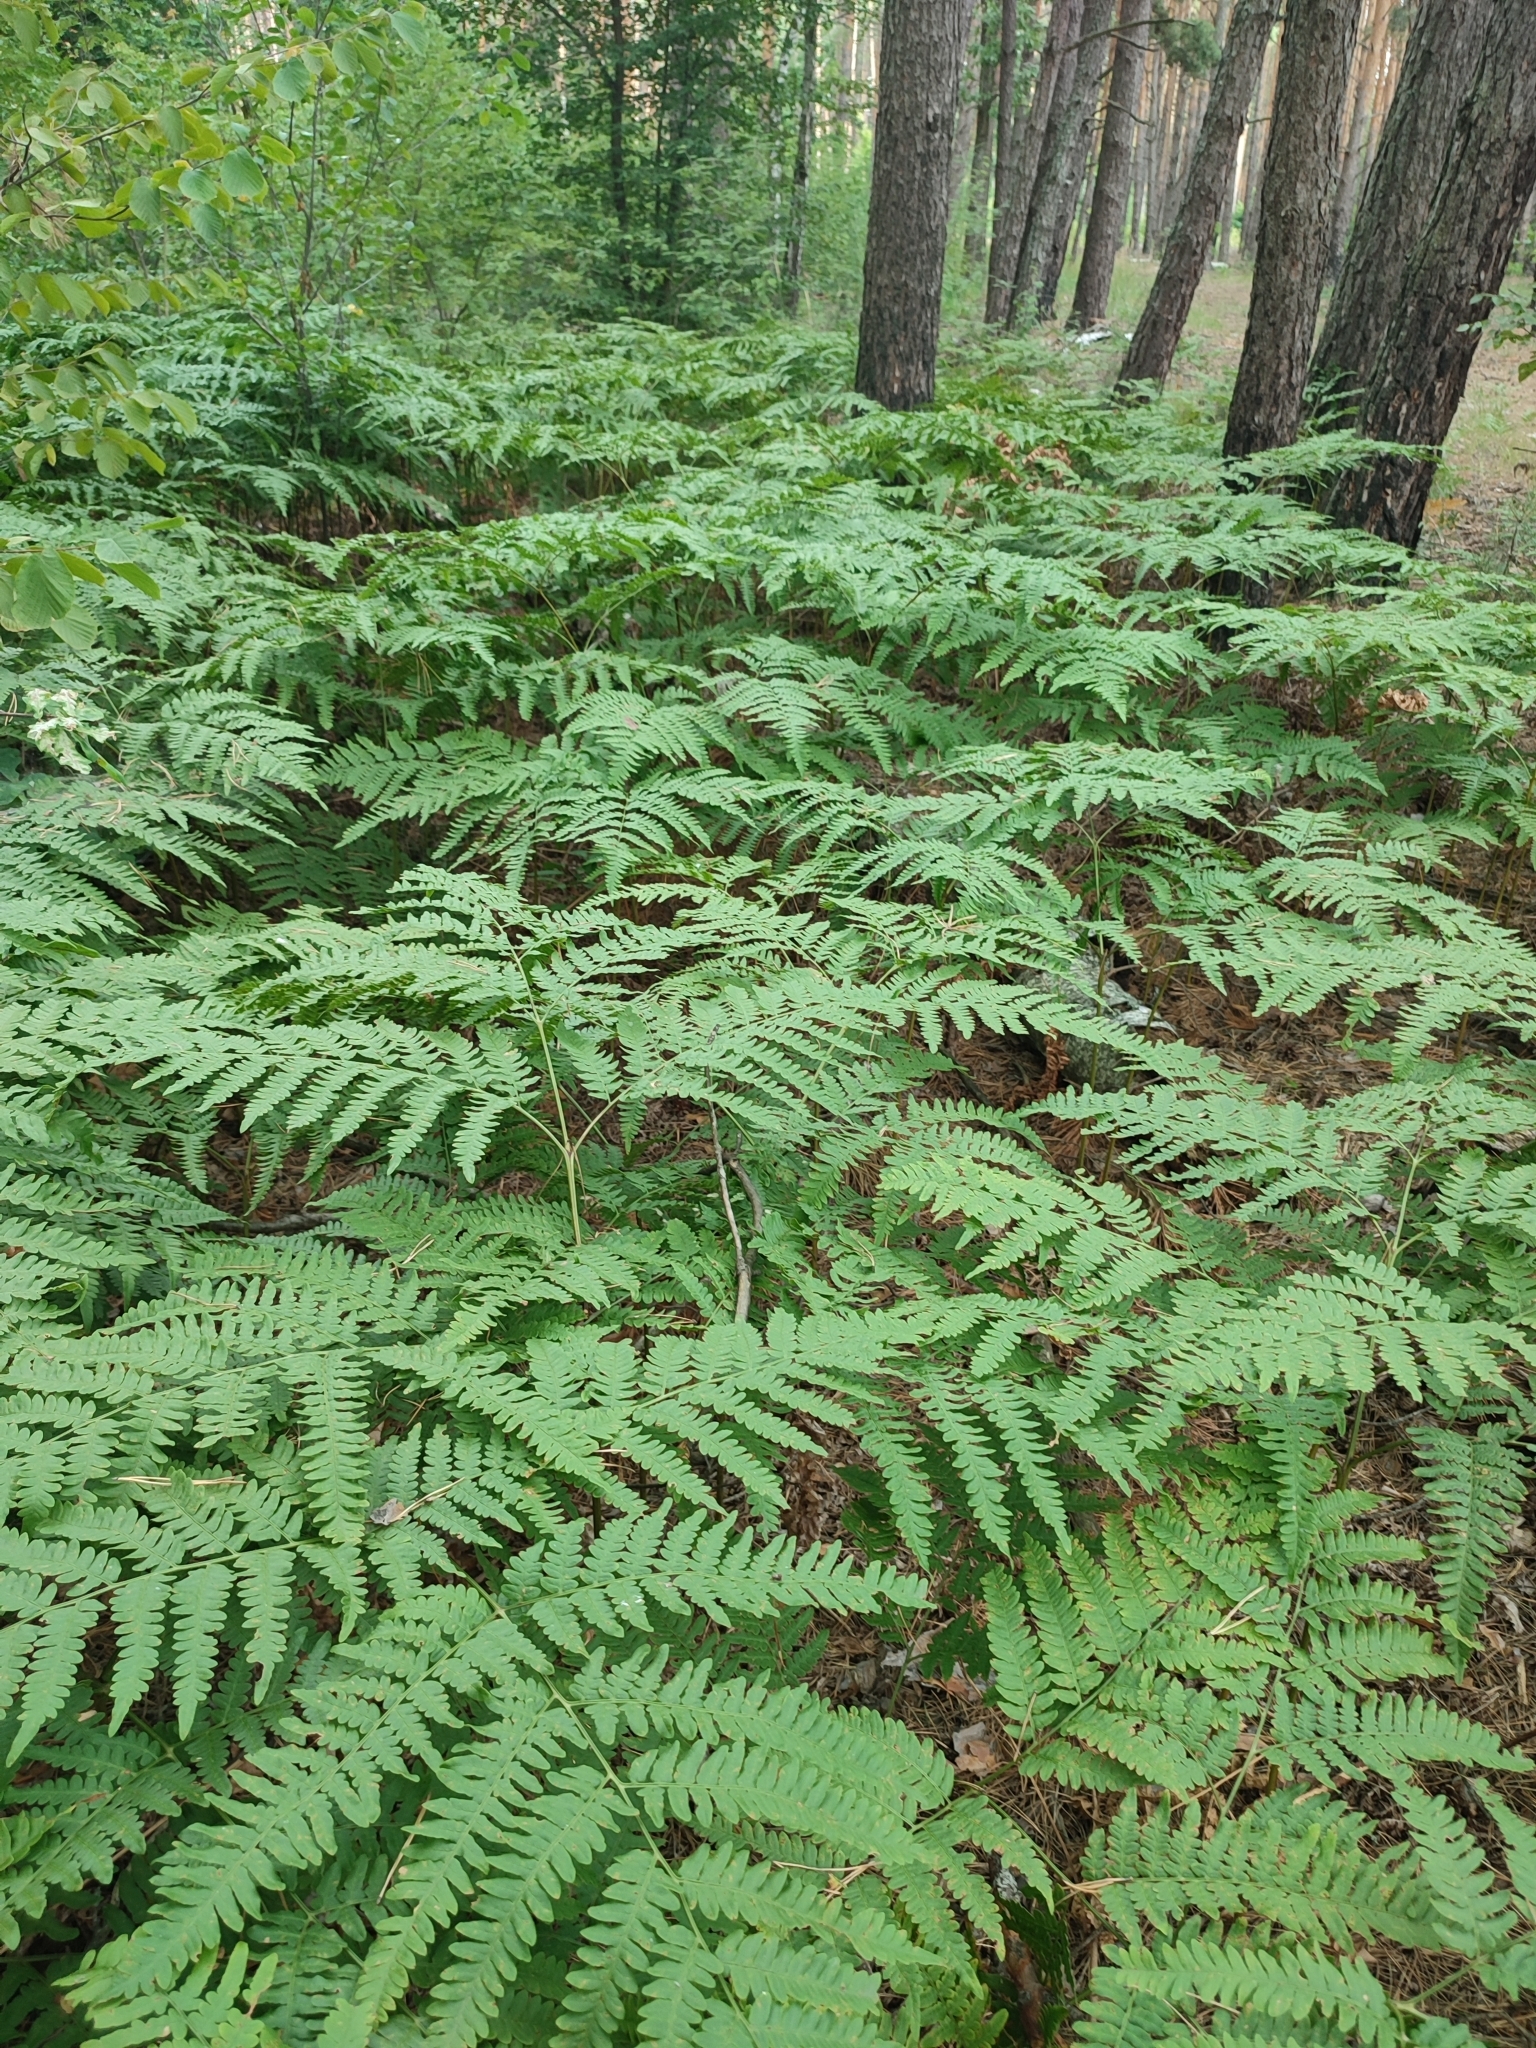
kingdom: Plantae
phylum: Tracheophyta
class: Polypodiopsida
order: Polypodiales
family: Dennstaedtiaceae
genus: Pteridium
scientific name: Pteridium aquilinum
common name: Bracken
